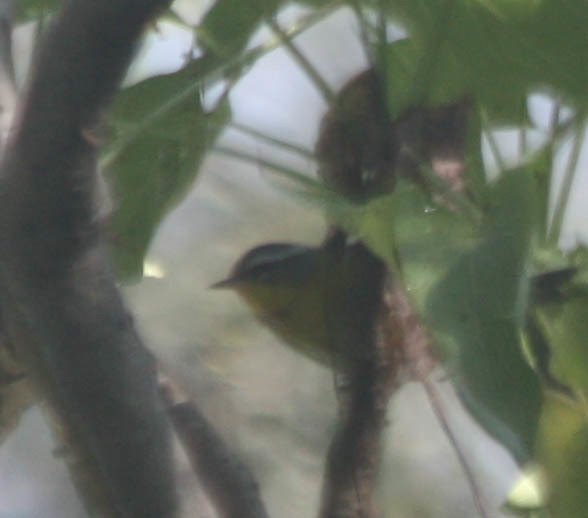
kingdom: Animalia
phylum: Chordata
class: Aves
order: Passeriformes
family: Parulidae
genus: Oreothlypis
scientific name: Oreothlypis superciliosa
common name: Crescent-chested warbler
